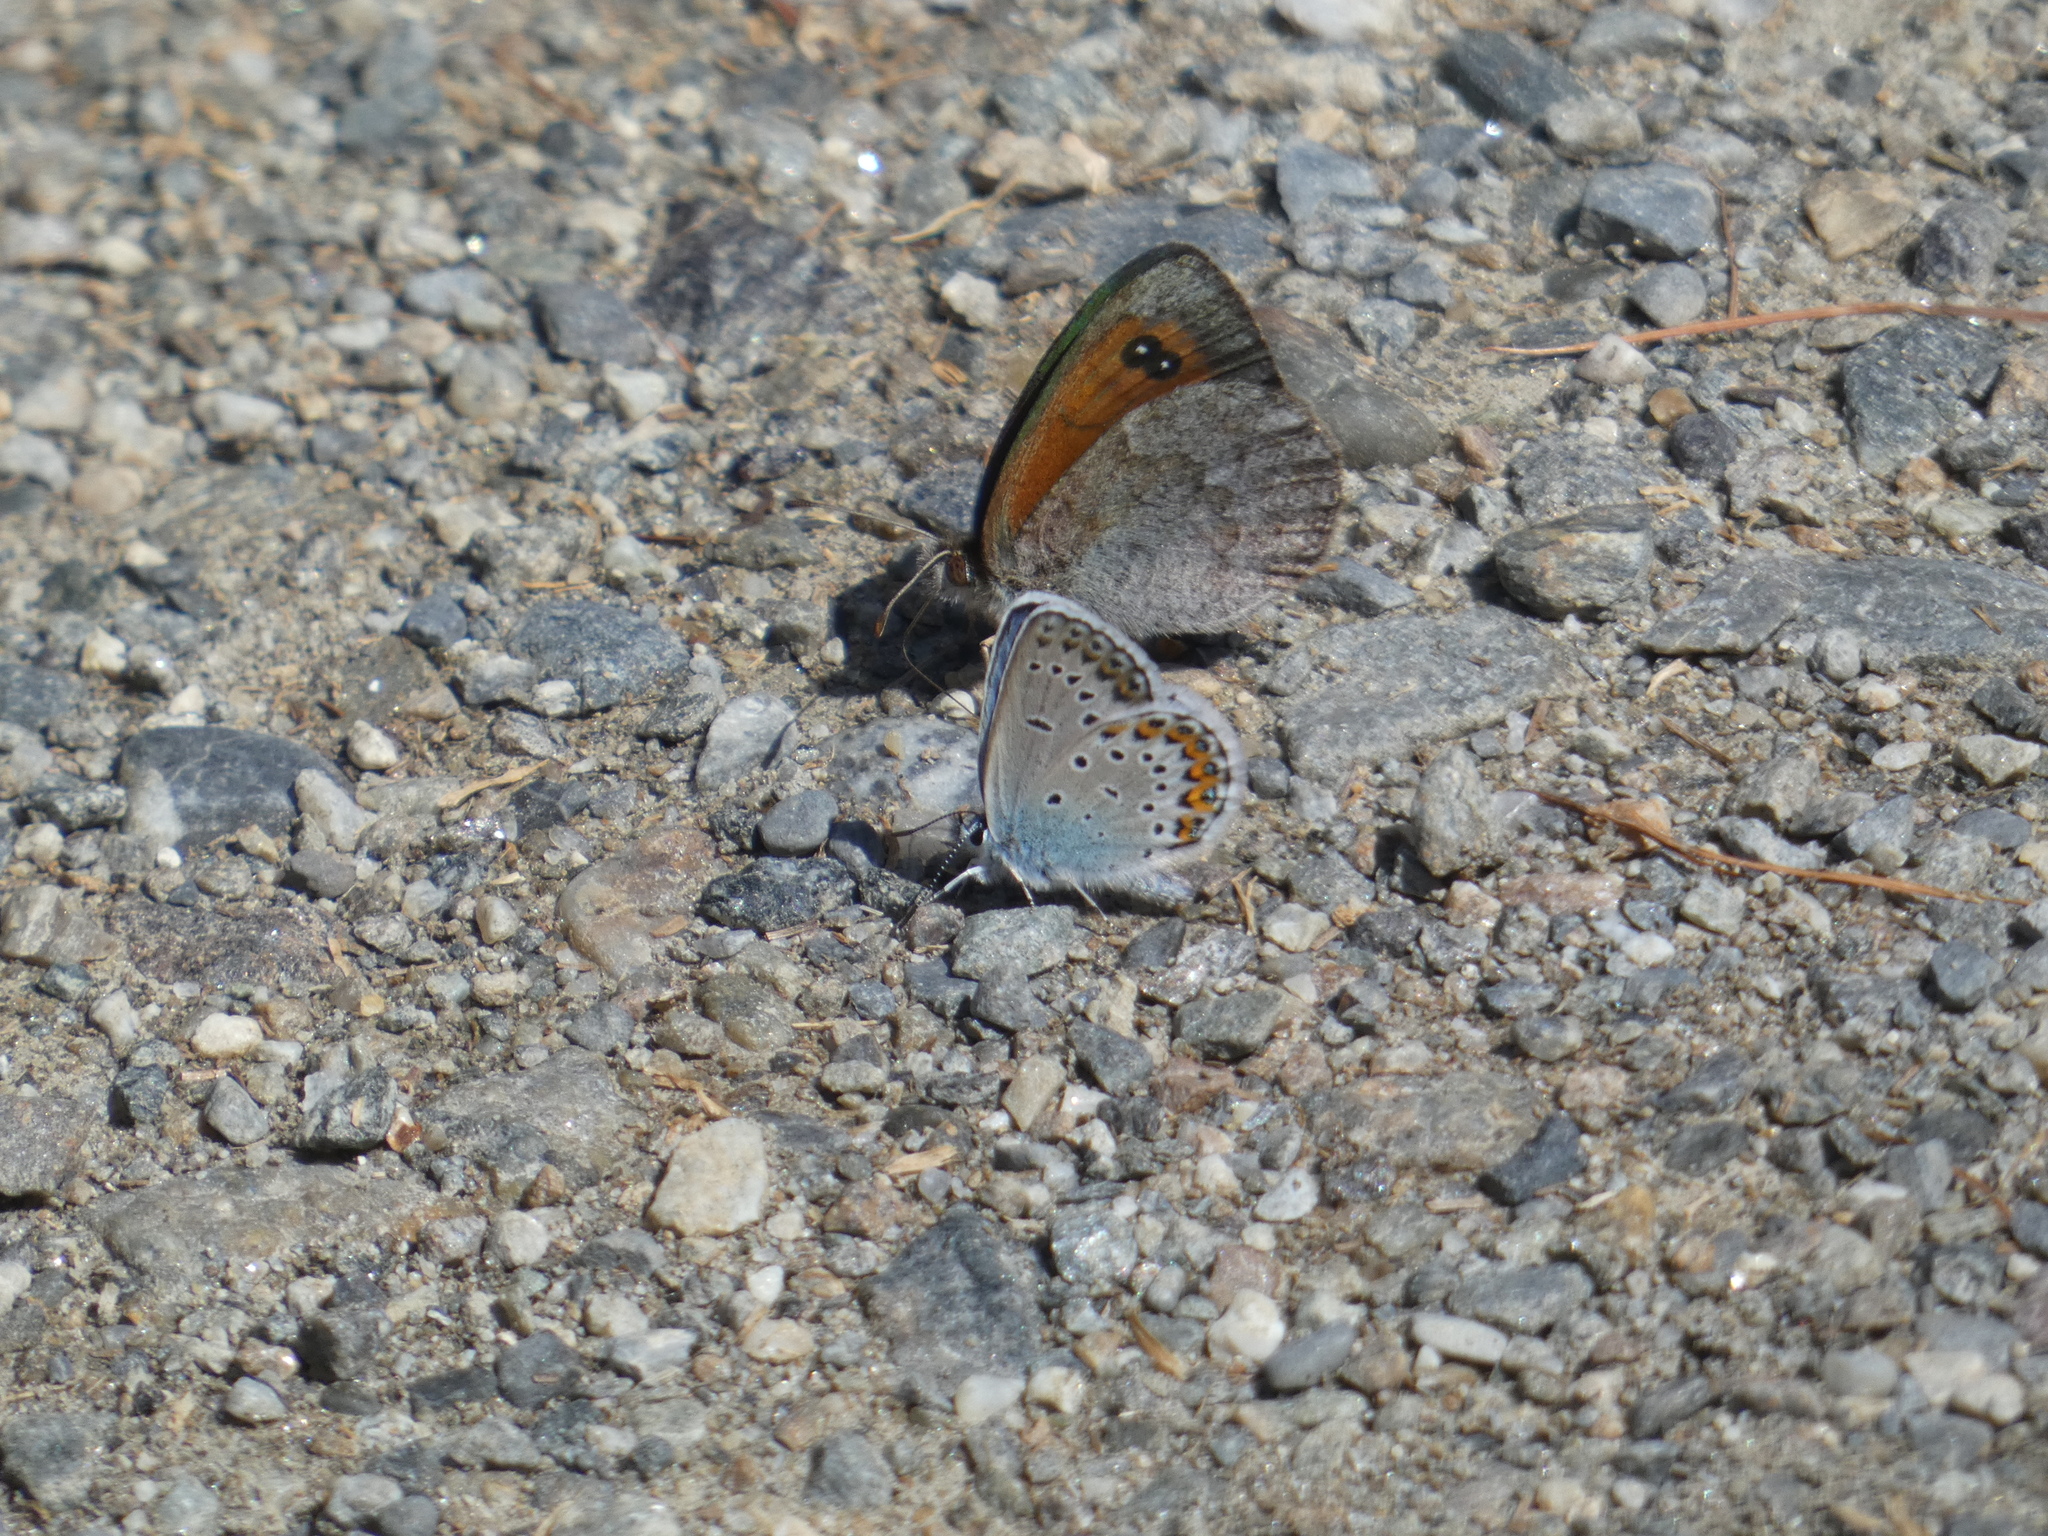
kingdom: Animalia
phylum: Arthropoda
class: Insecta
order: Lepidoptera
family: Nymphalidae
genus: Erebia
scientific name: Erebia cassioides
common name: Common brassy ringlet
